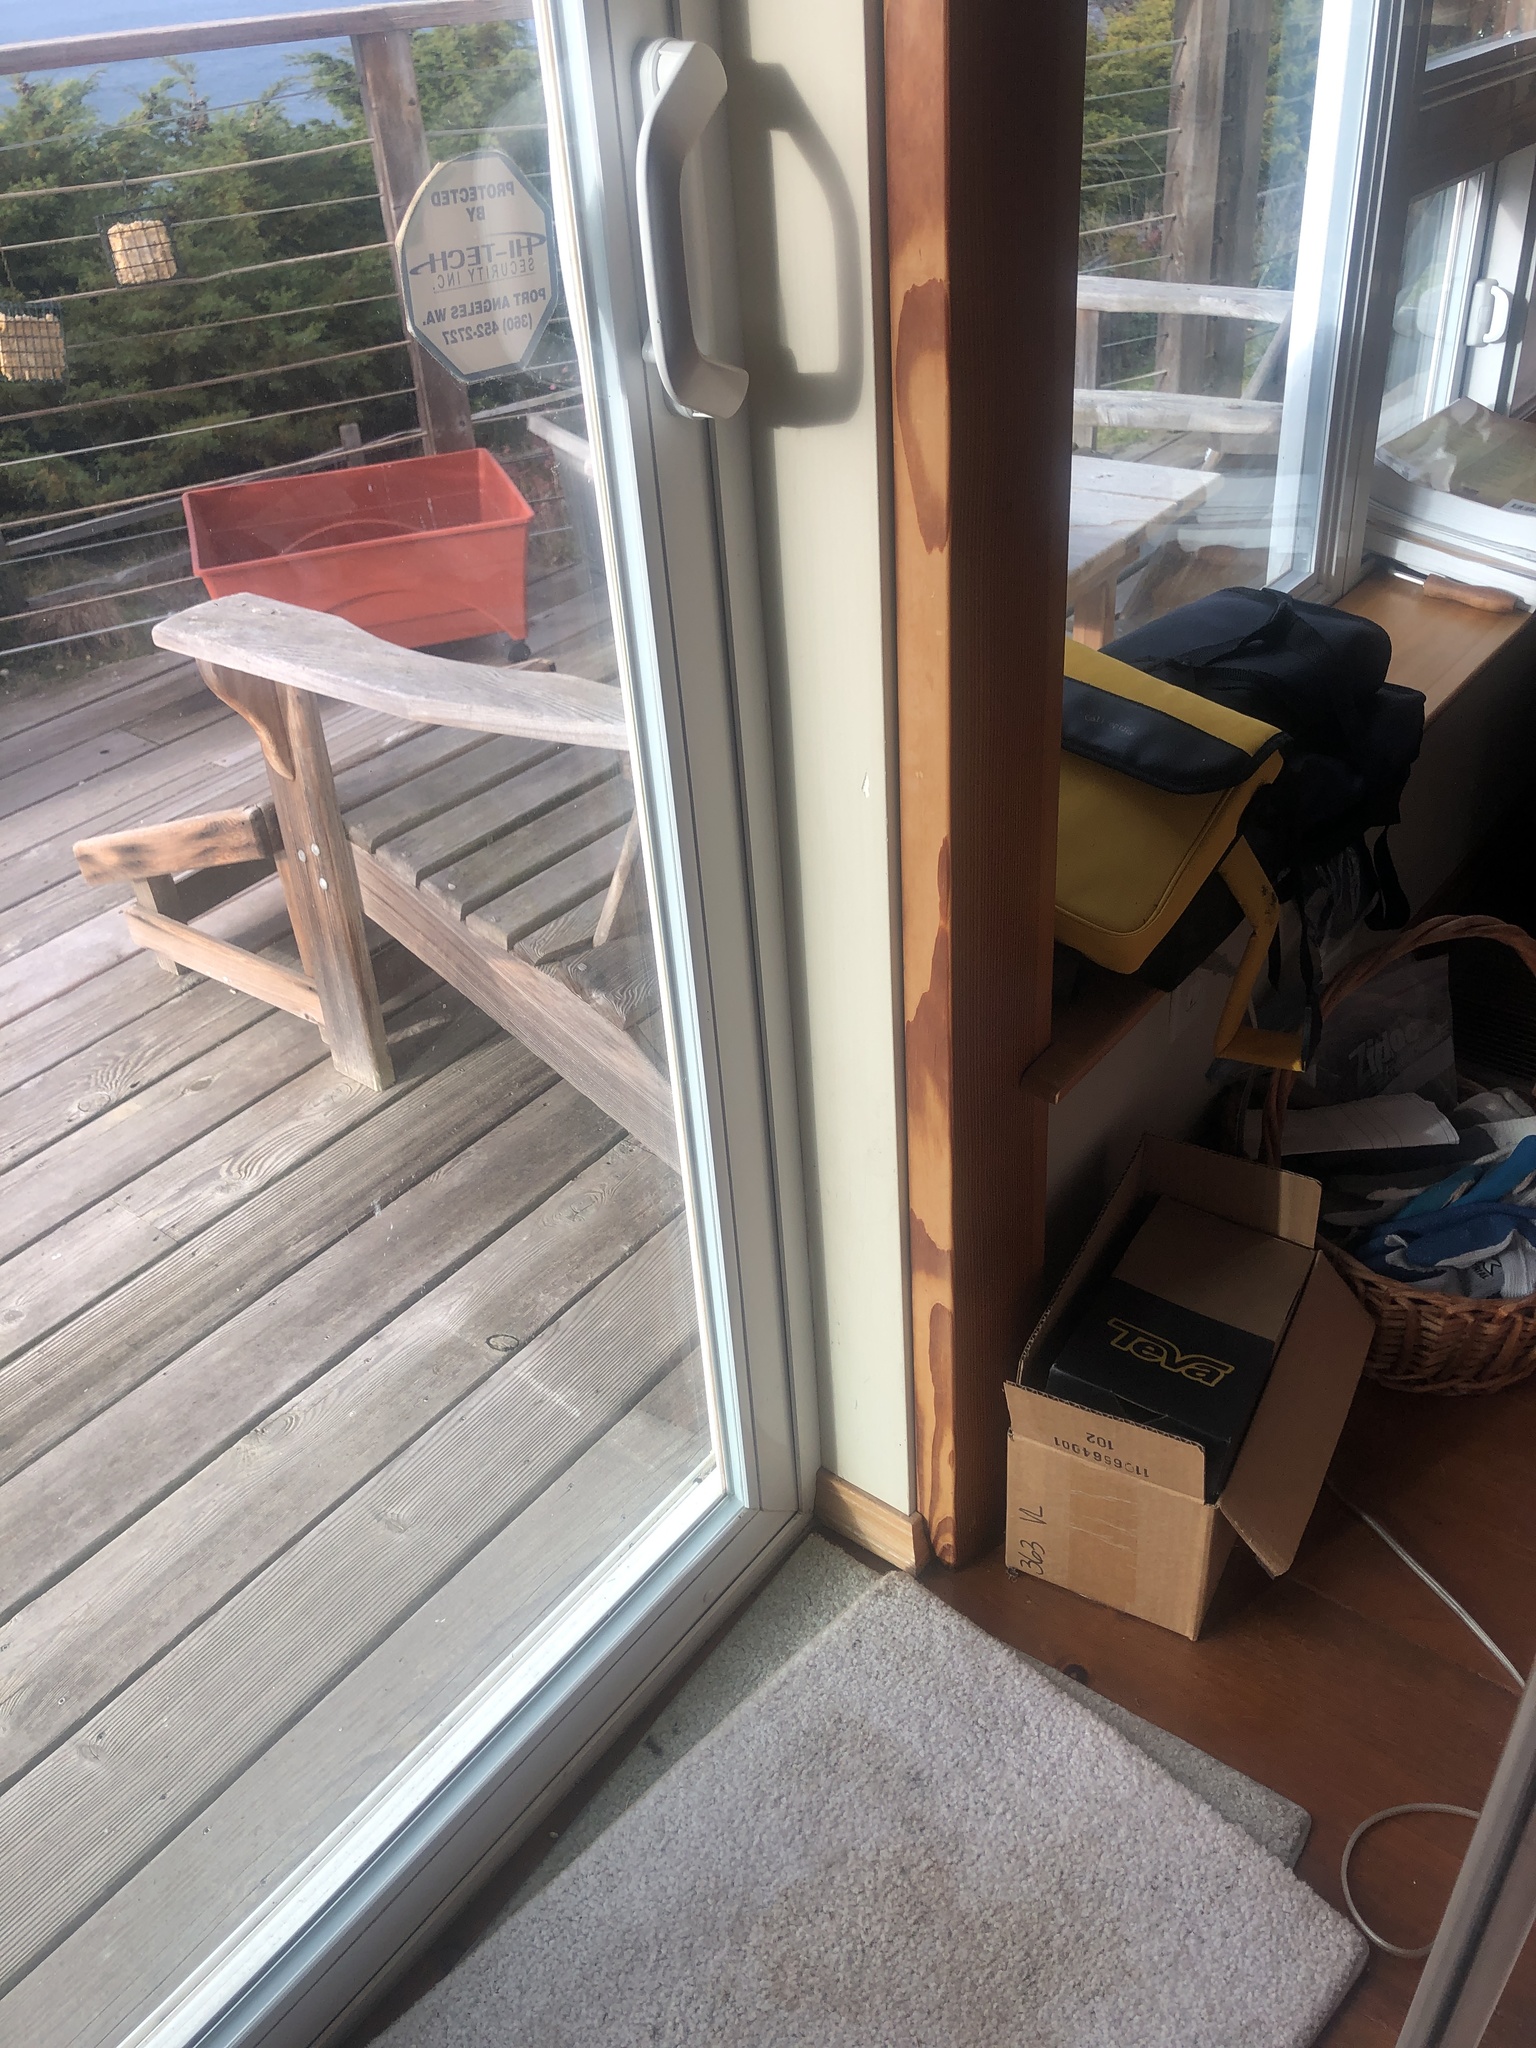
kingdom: Animalia
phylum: Chordata
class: Aves
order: Passeriformes
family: Passerellidae
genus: Pipilo
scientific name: Pipilo maculatus
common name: Spotted towhee
